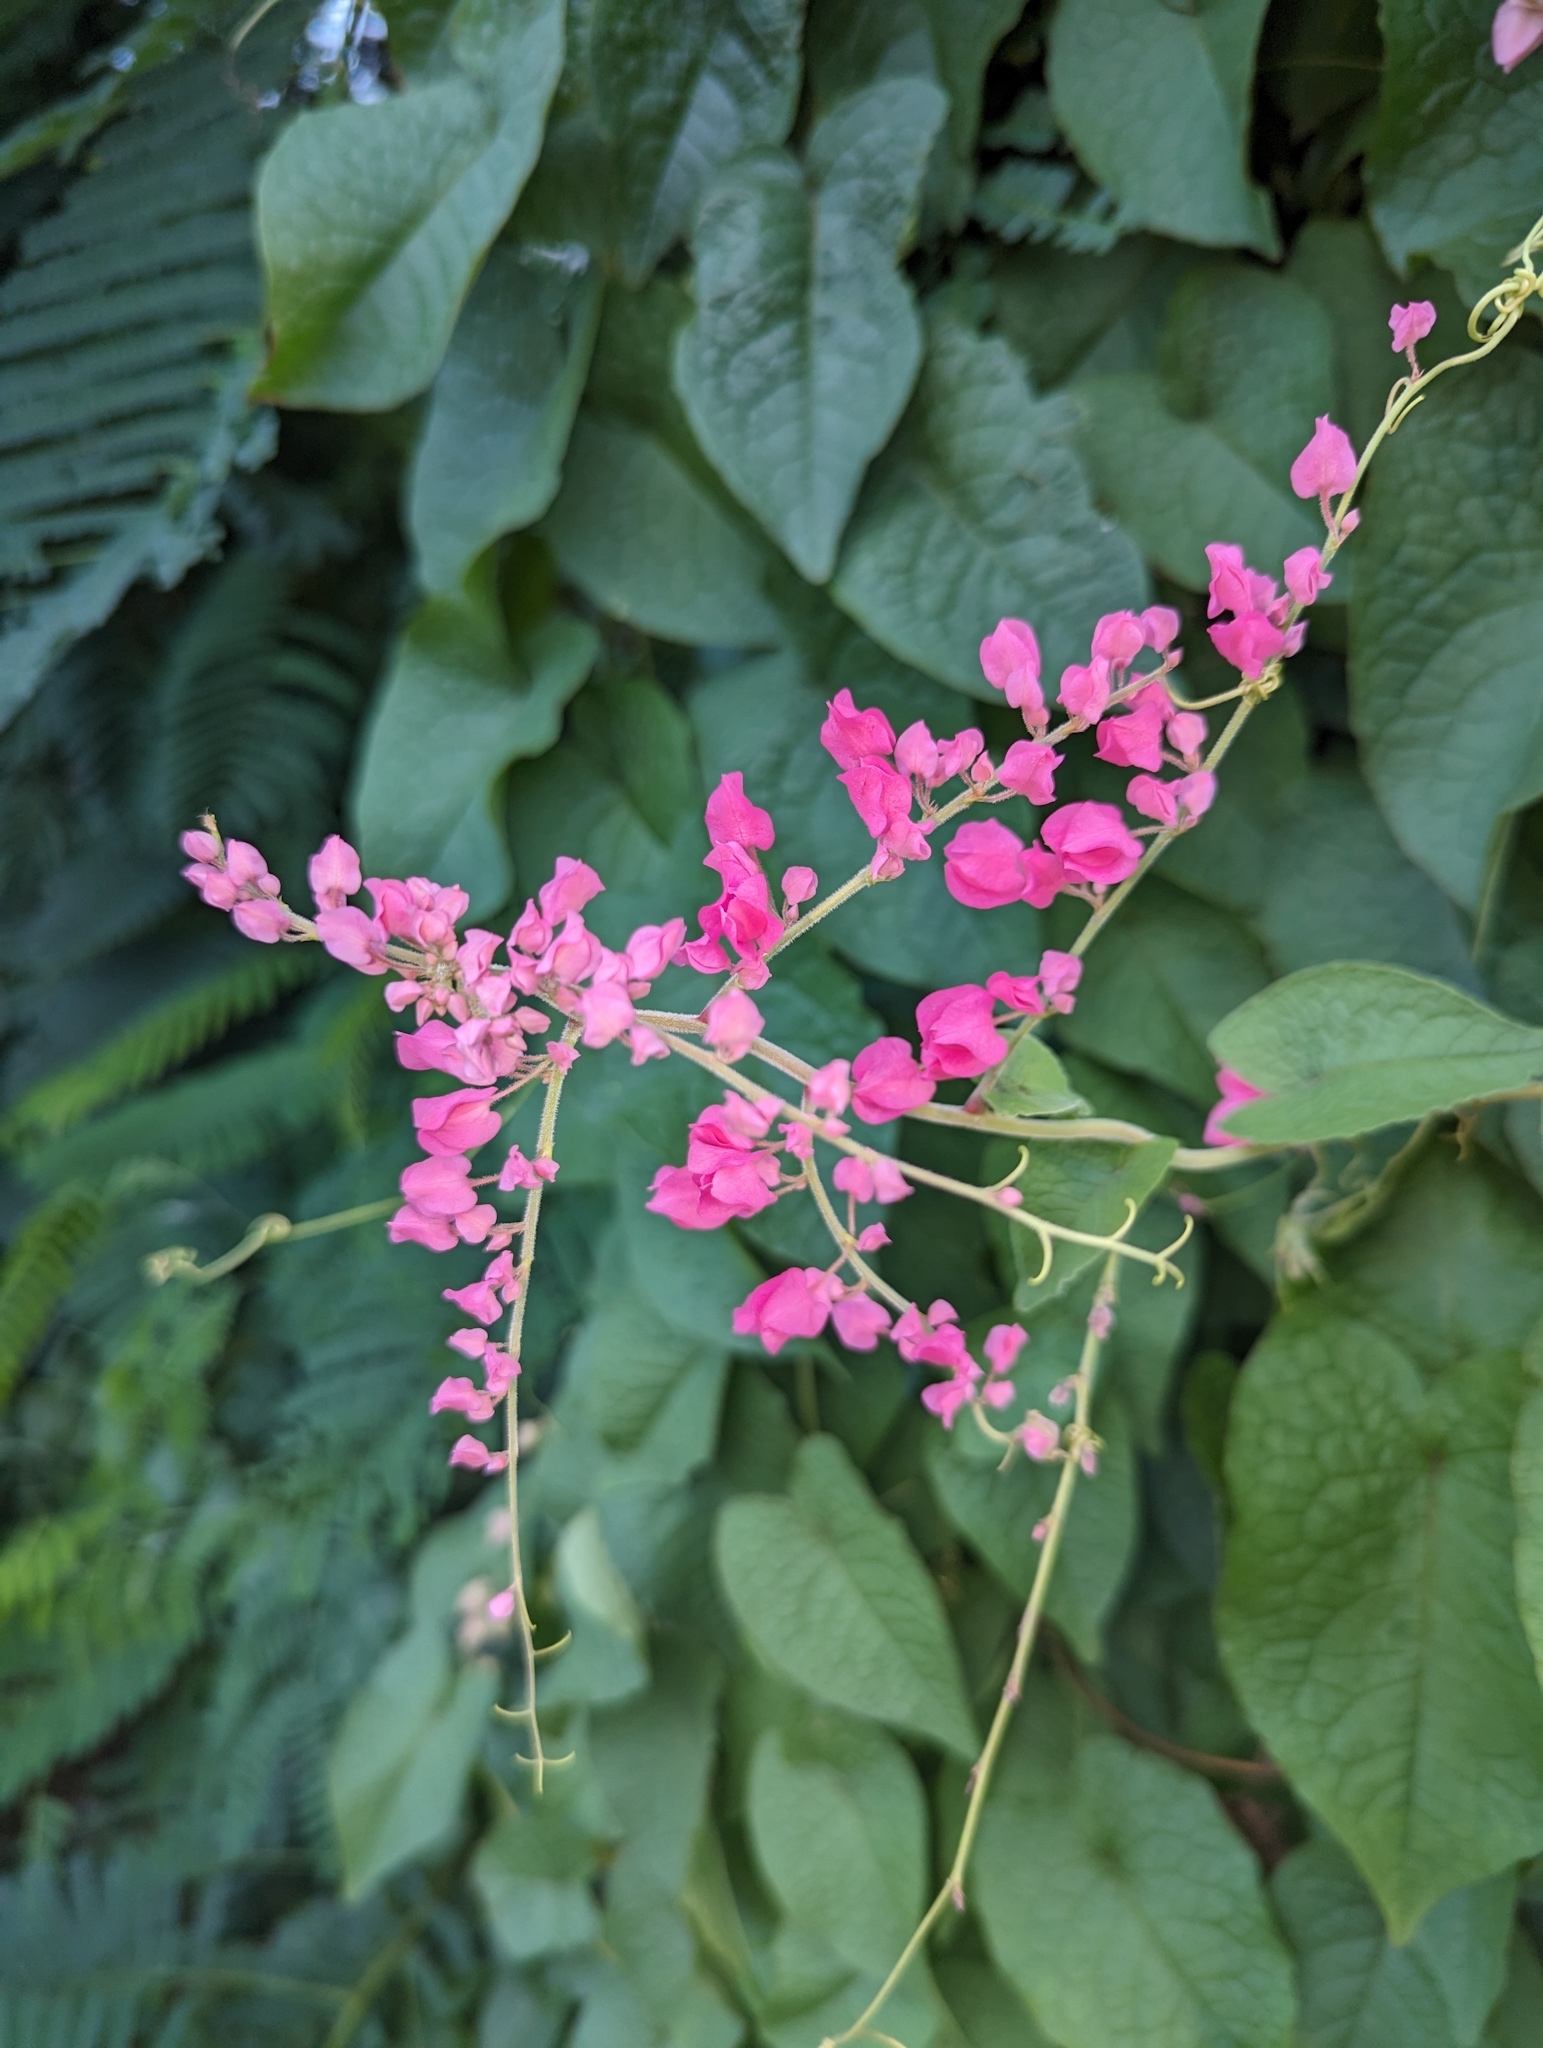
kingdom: Plantae
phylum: Tracheophyta
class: Magnoliopsida
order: Caryophyllales
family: Polygonaceae
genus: Antigonon
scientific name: Antigonon leptopus
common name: Coral vine
